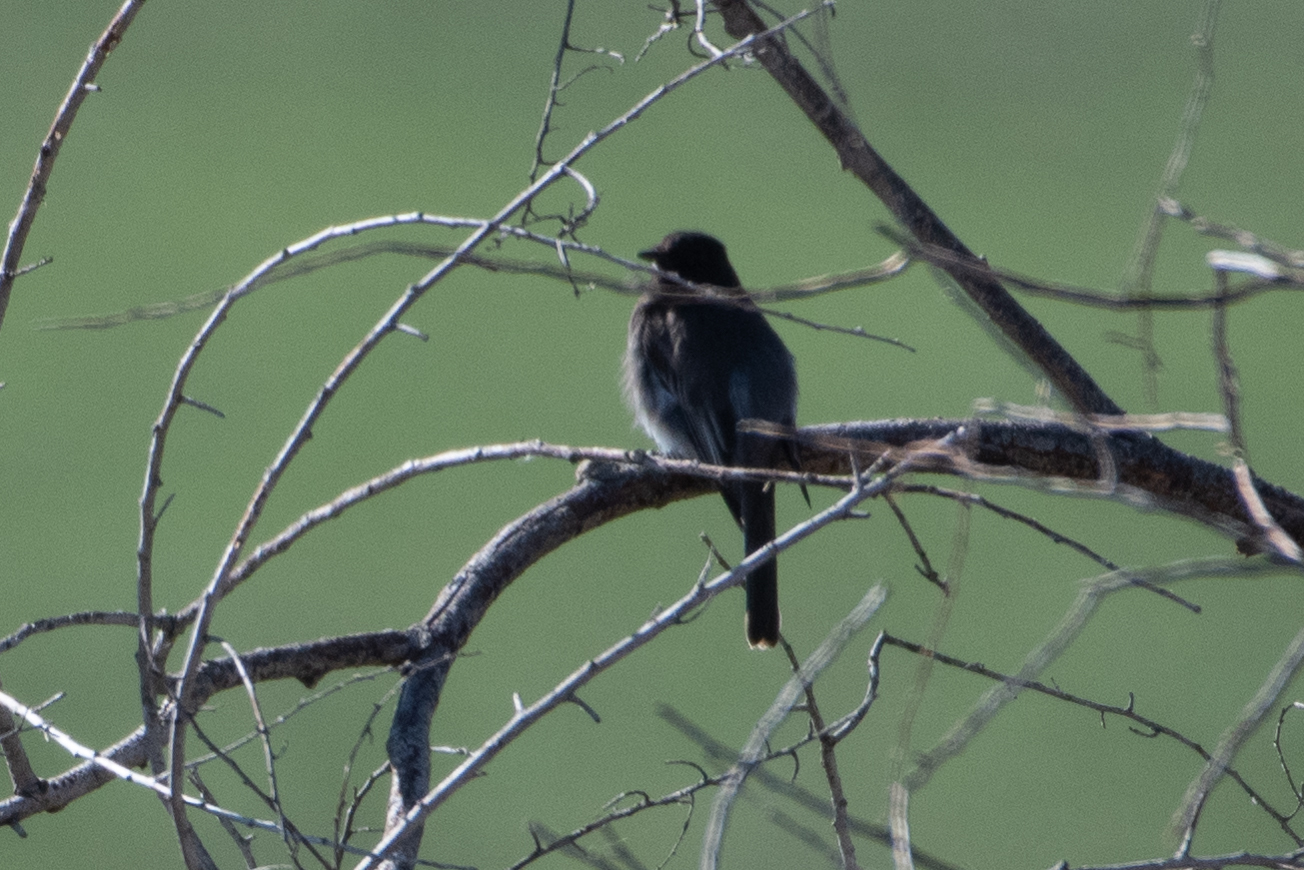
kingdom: Animalia
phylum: Chordata
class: Aves
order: Passeriformes
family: Tyrannidae
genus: Sayornis
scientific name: Sayornis nigricans
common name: Black phoebe
